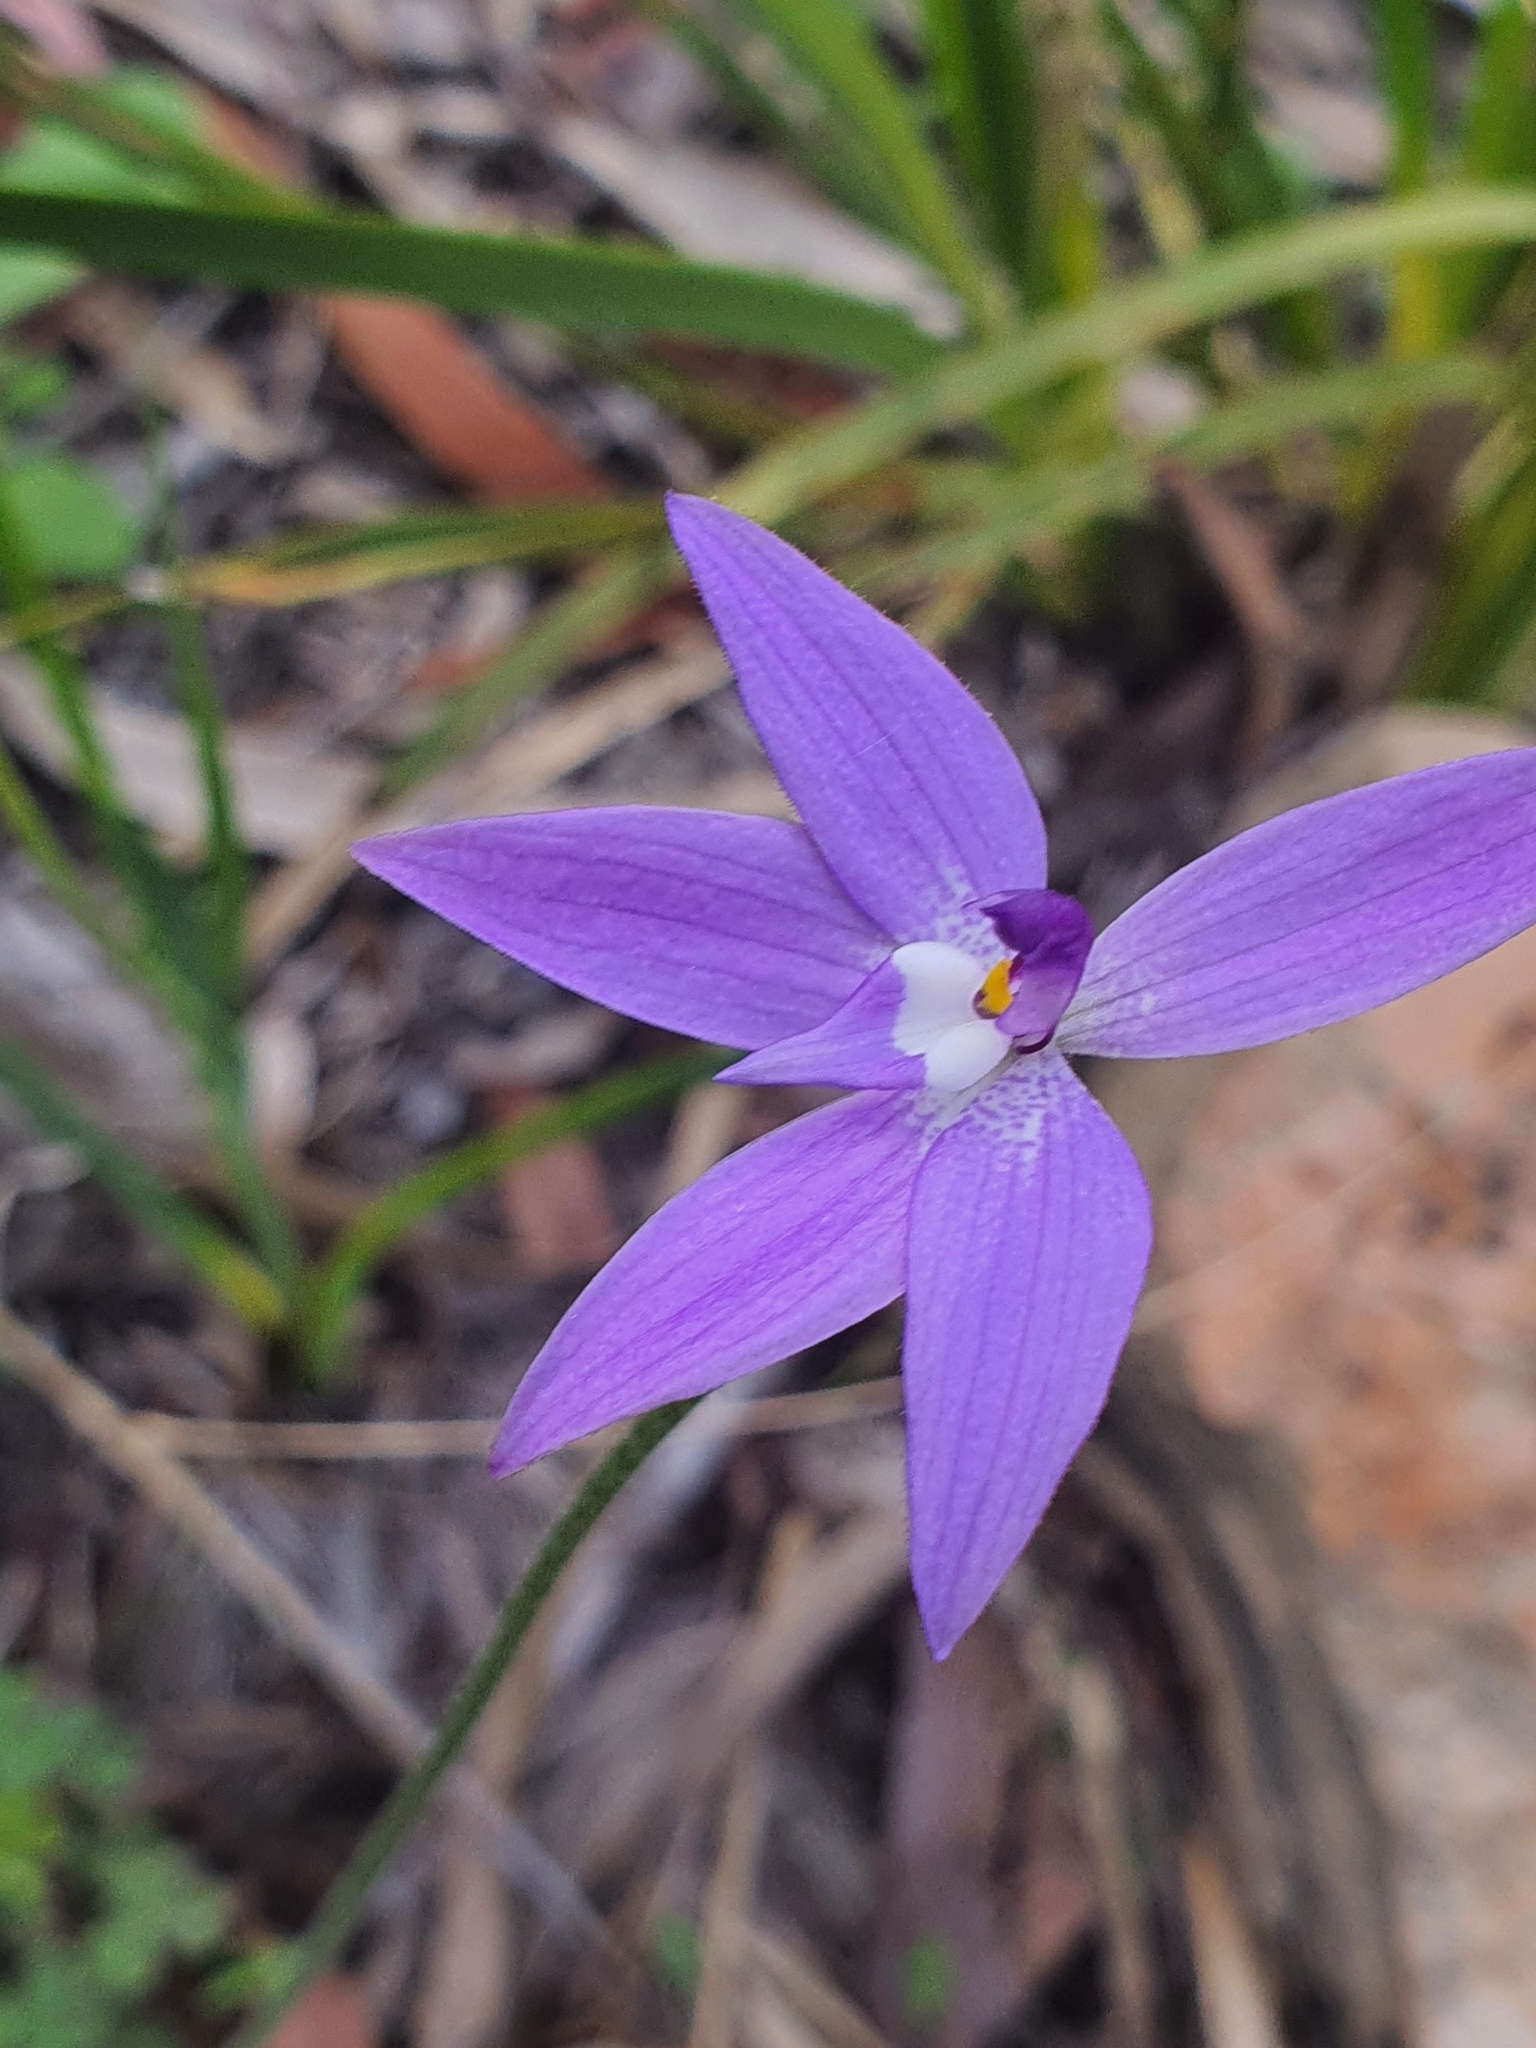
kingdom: Plantae
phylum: Tracheophyta
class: Liliopsida
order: Asparagales
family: Orchidaceae
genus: Caladenia
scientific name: Caladenia major
